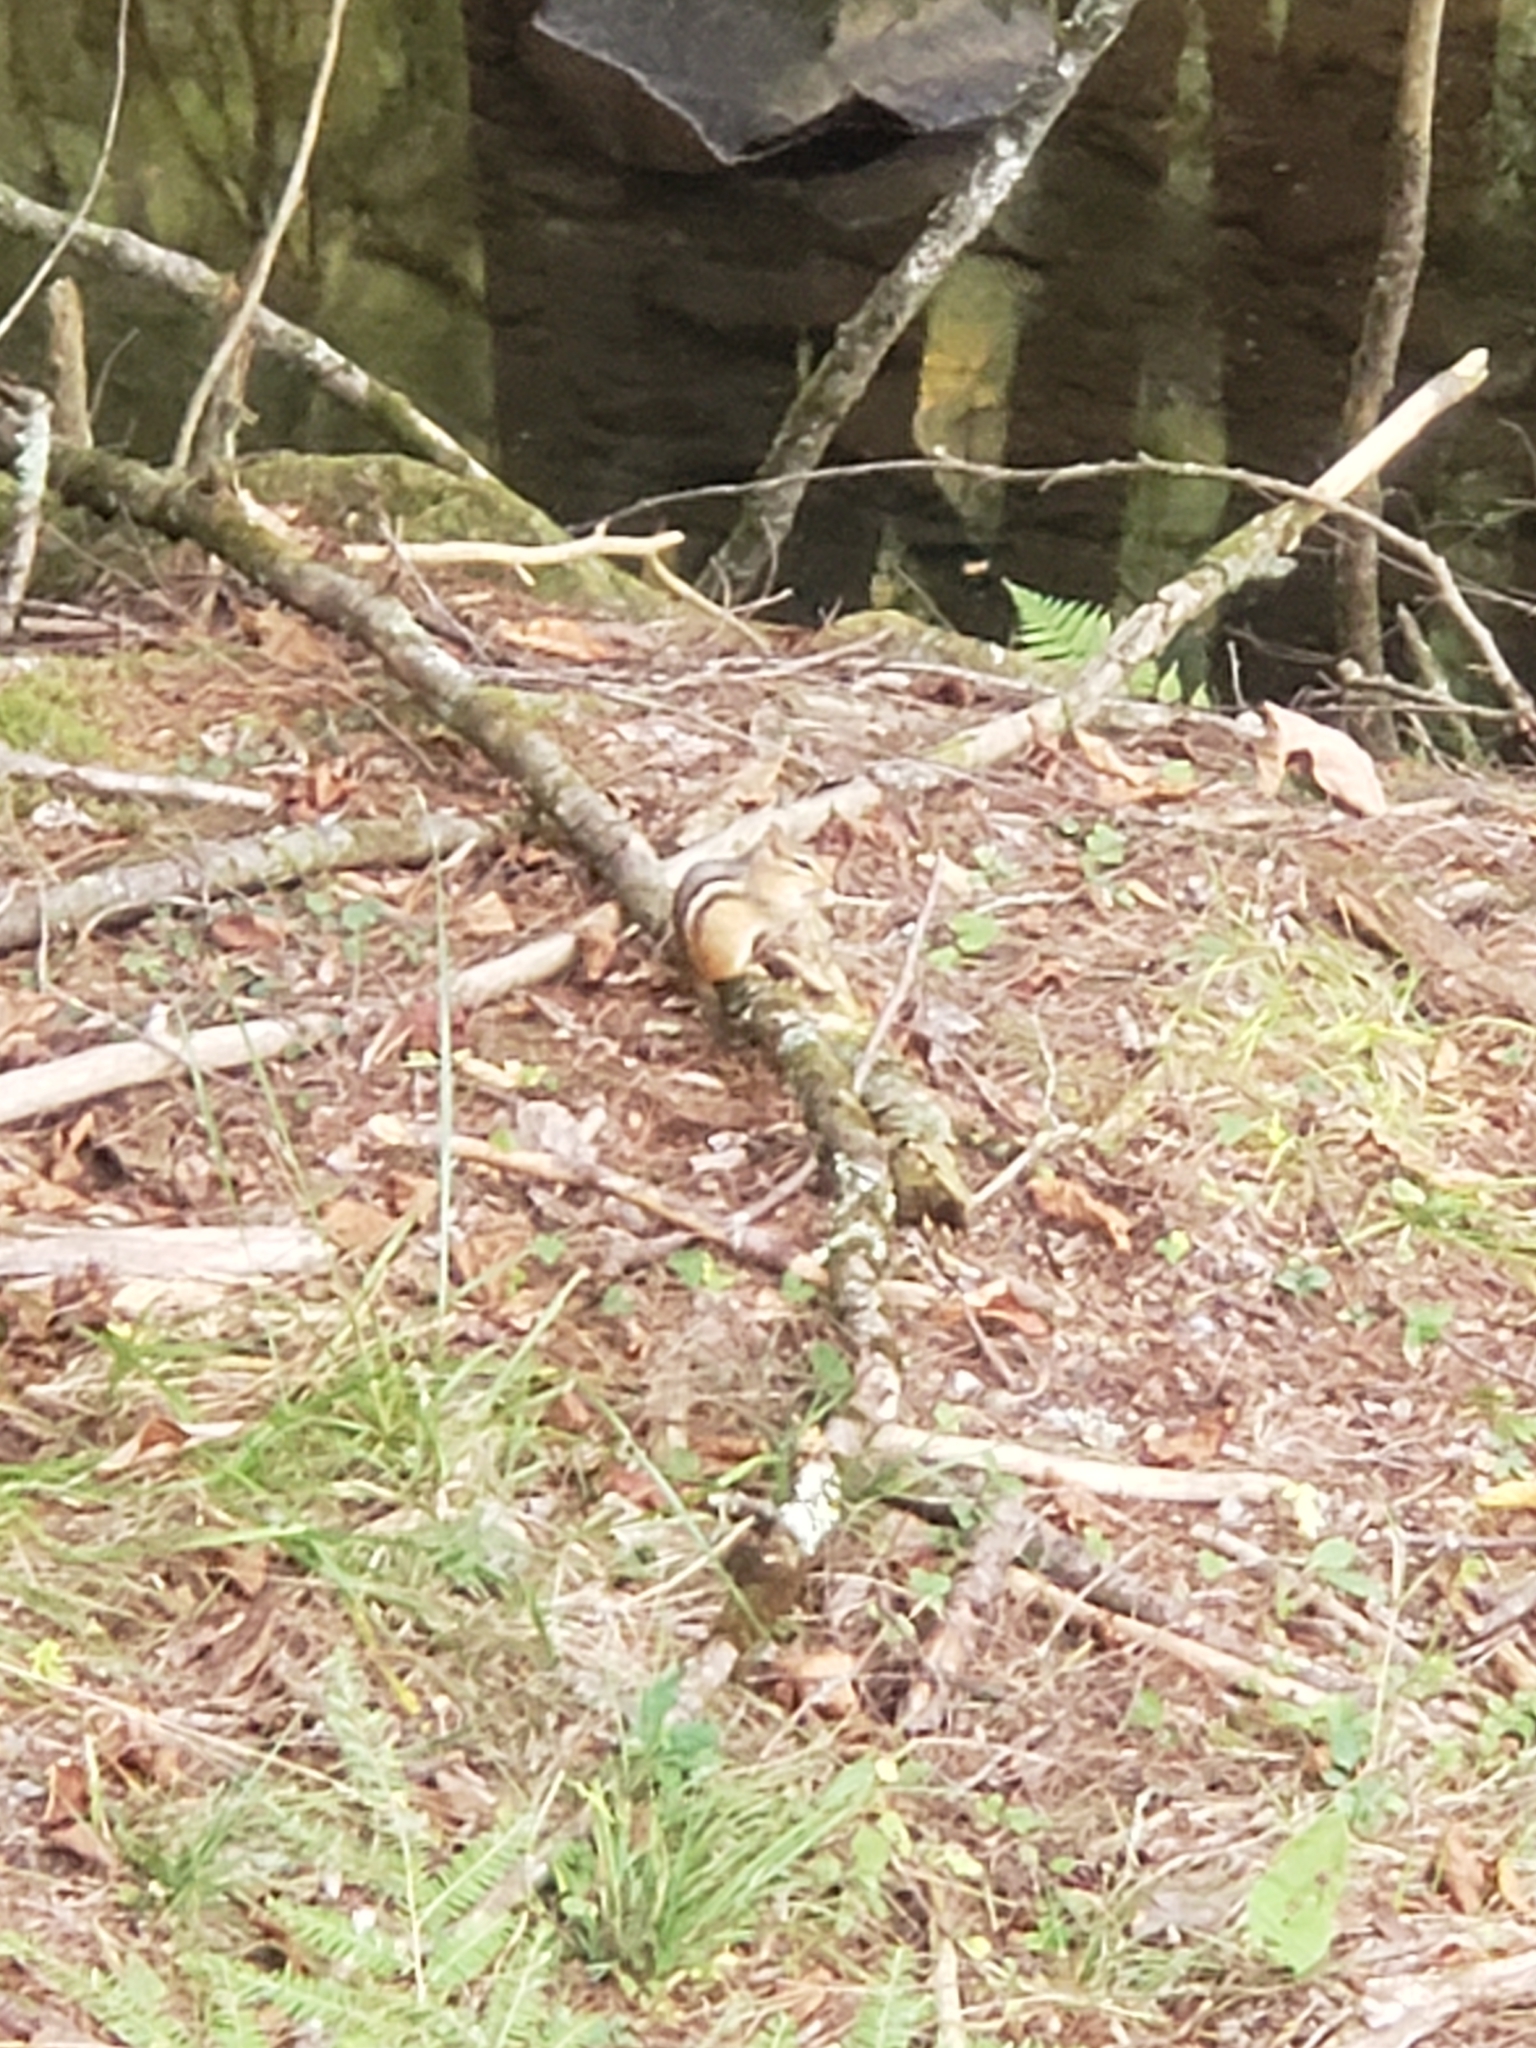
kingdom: Animalia
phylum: Chordata
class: Mammalia
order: Rodentia
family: Sciuridae
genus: Tamias
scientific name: Tamias striatus
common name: Eastern chipmunk
